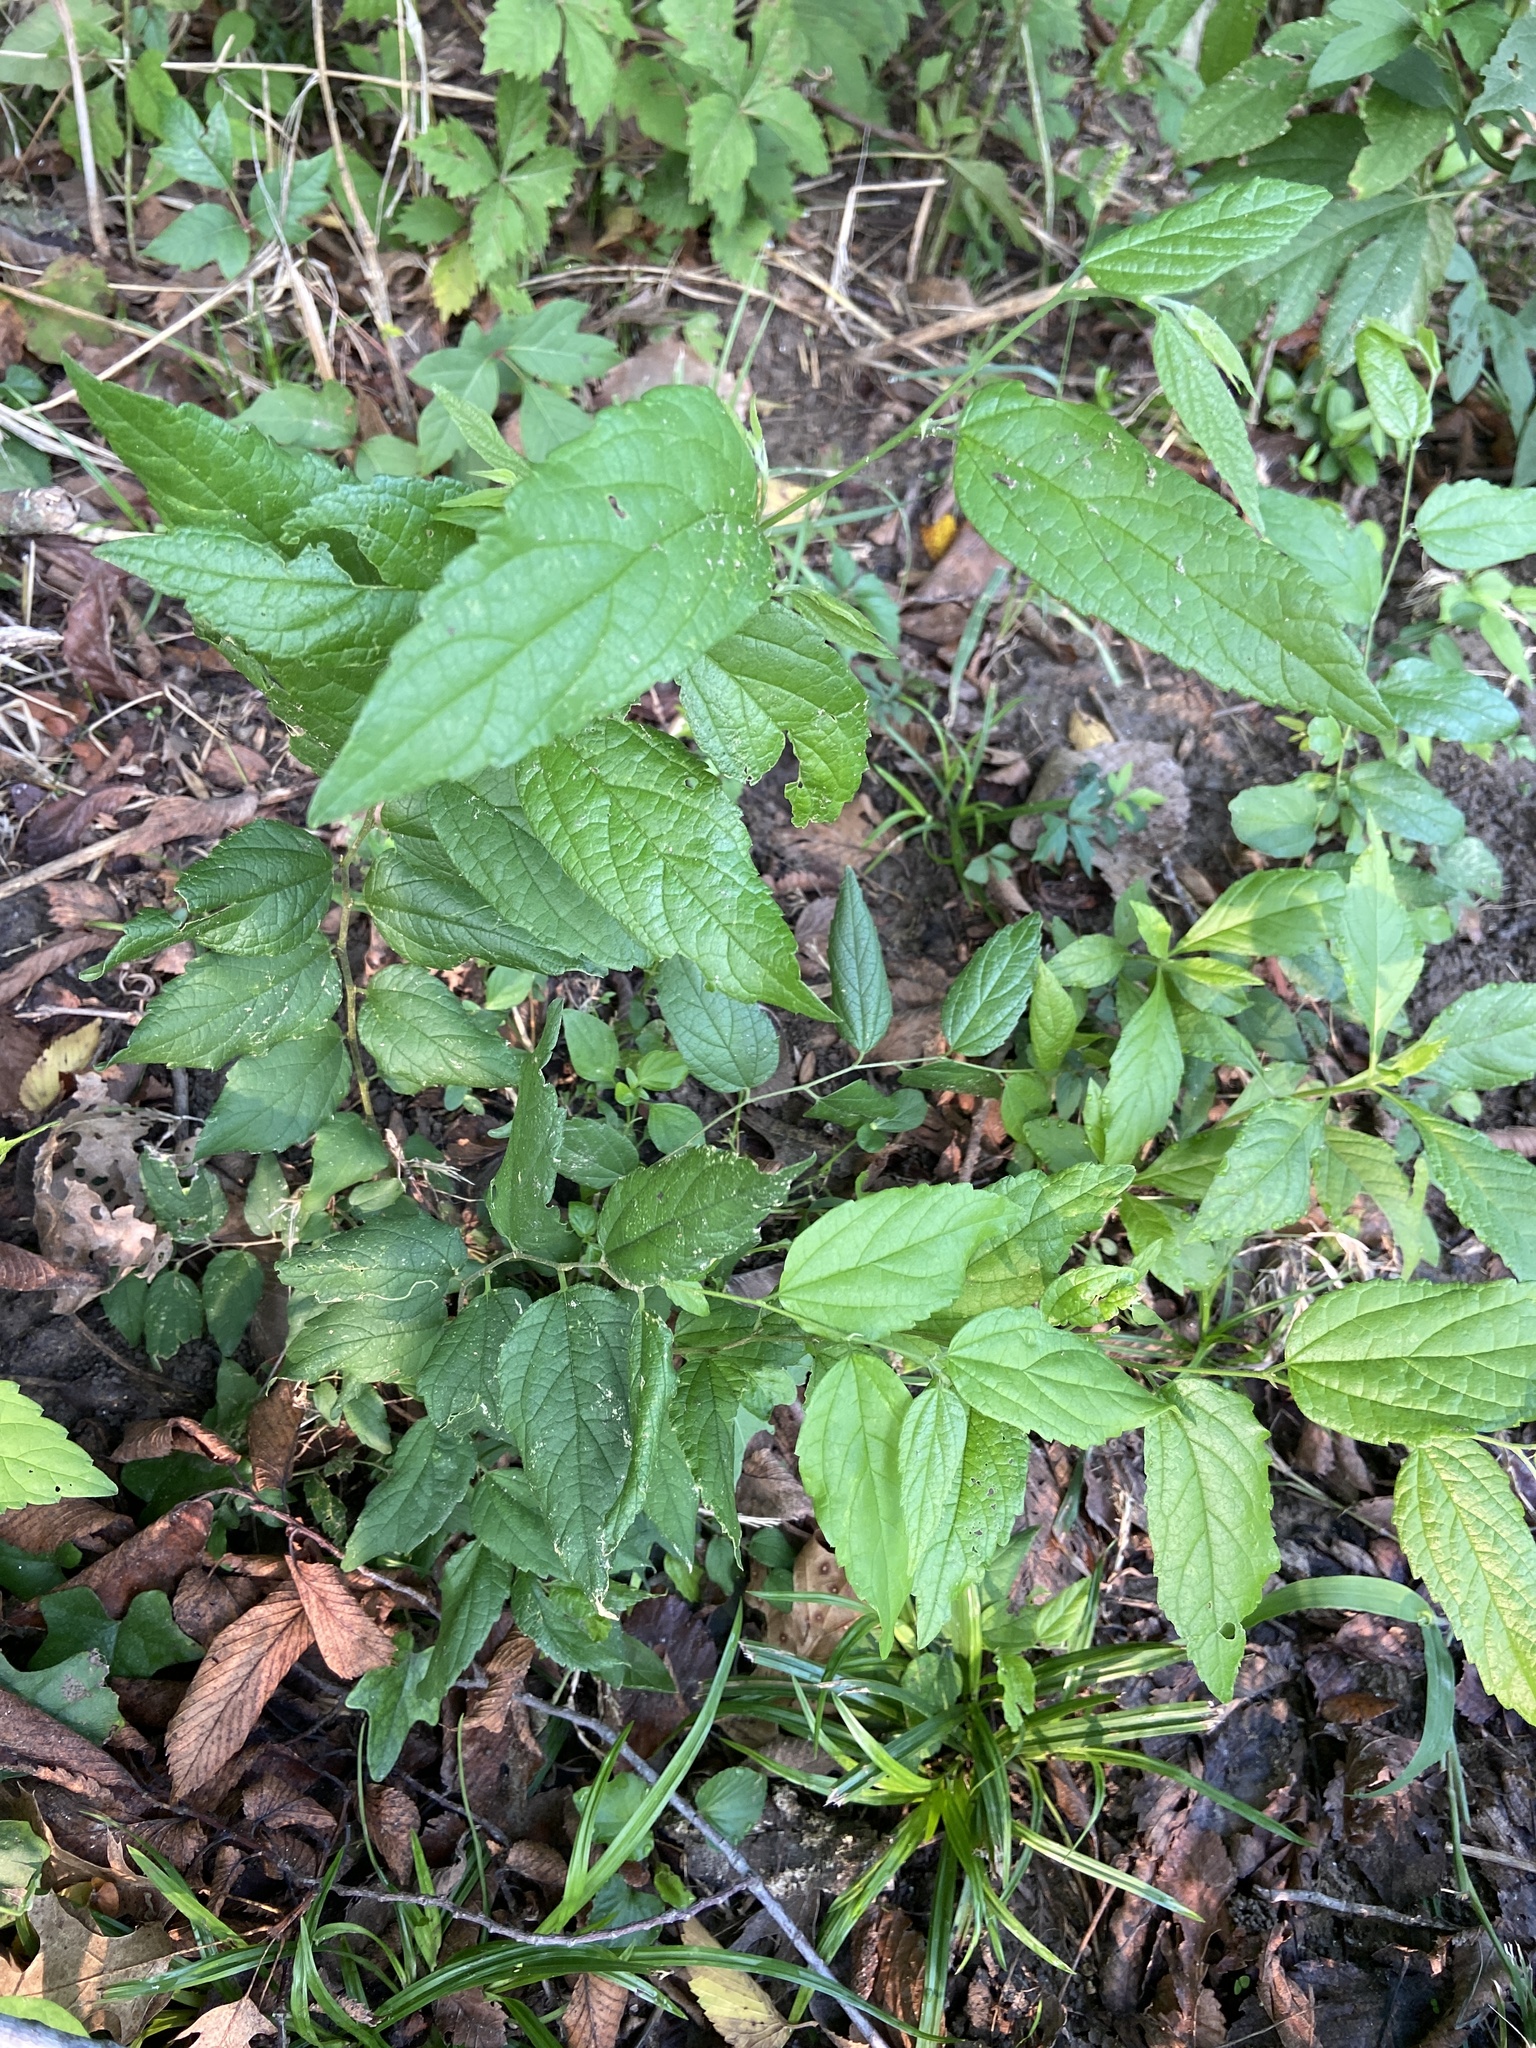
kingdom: Plantae
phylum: Tracheophyta
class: Magnoliopsida
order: Rosales
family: Cannabaceae
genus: Celtis
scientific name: Celtis laevigata
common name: Sugarberry
